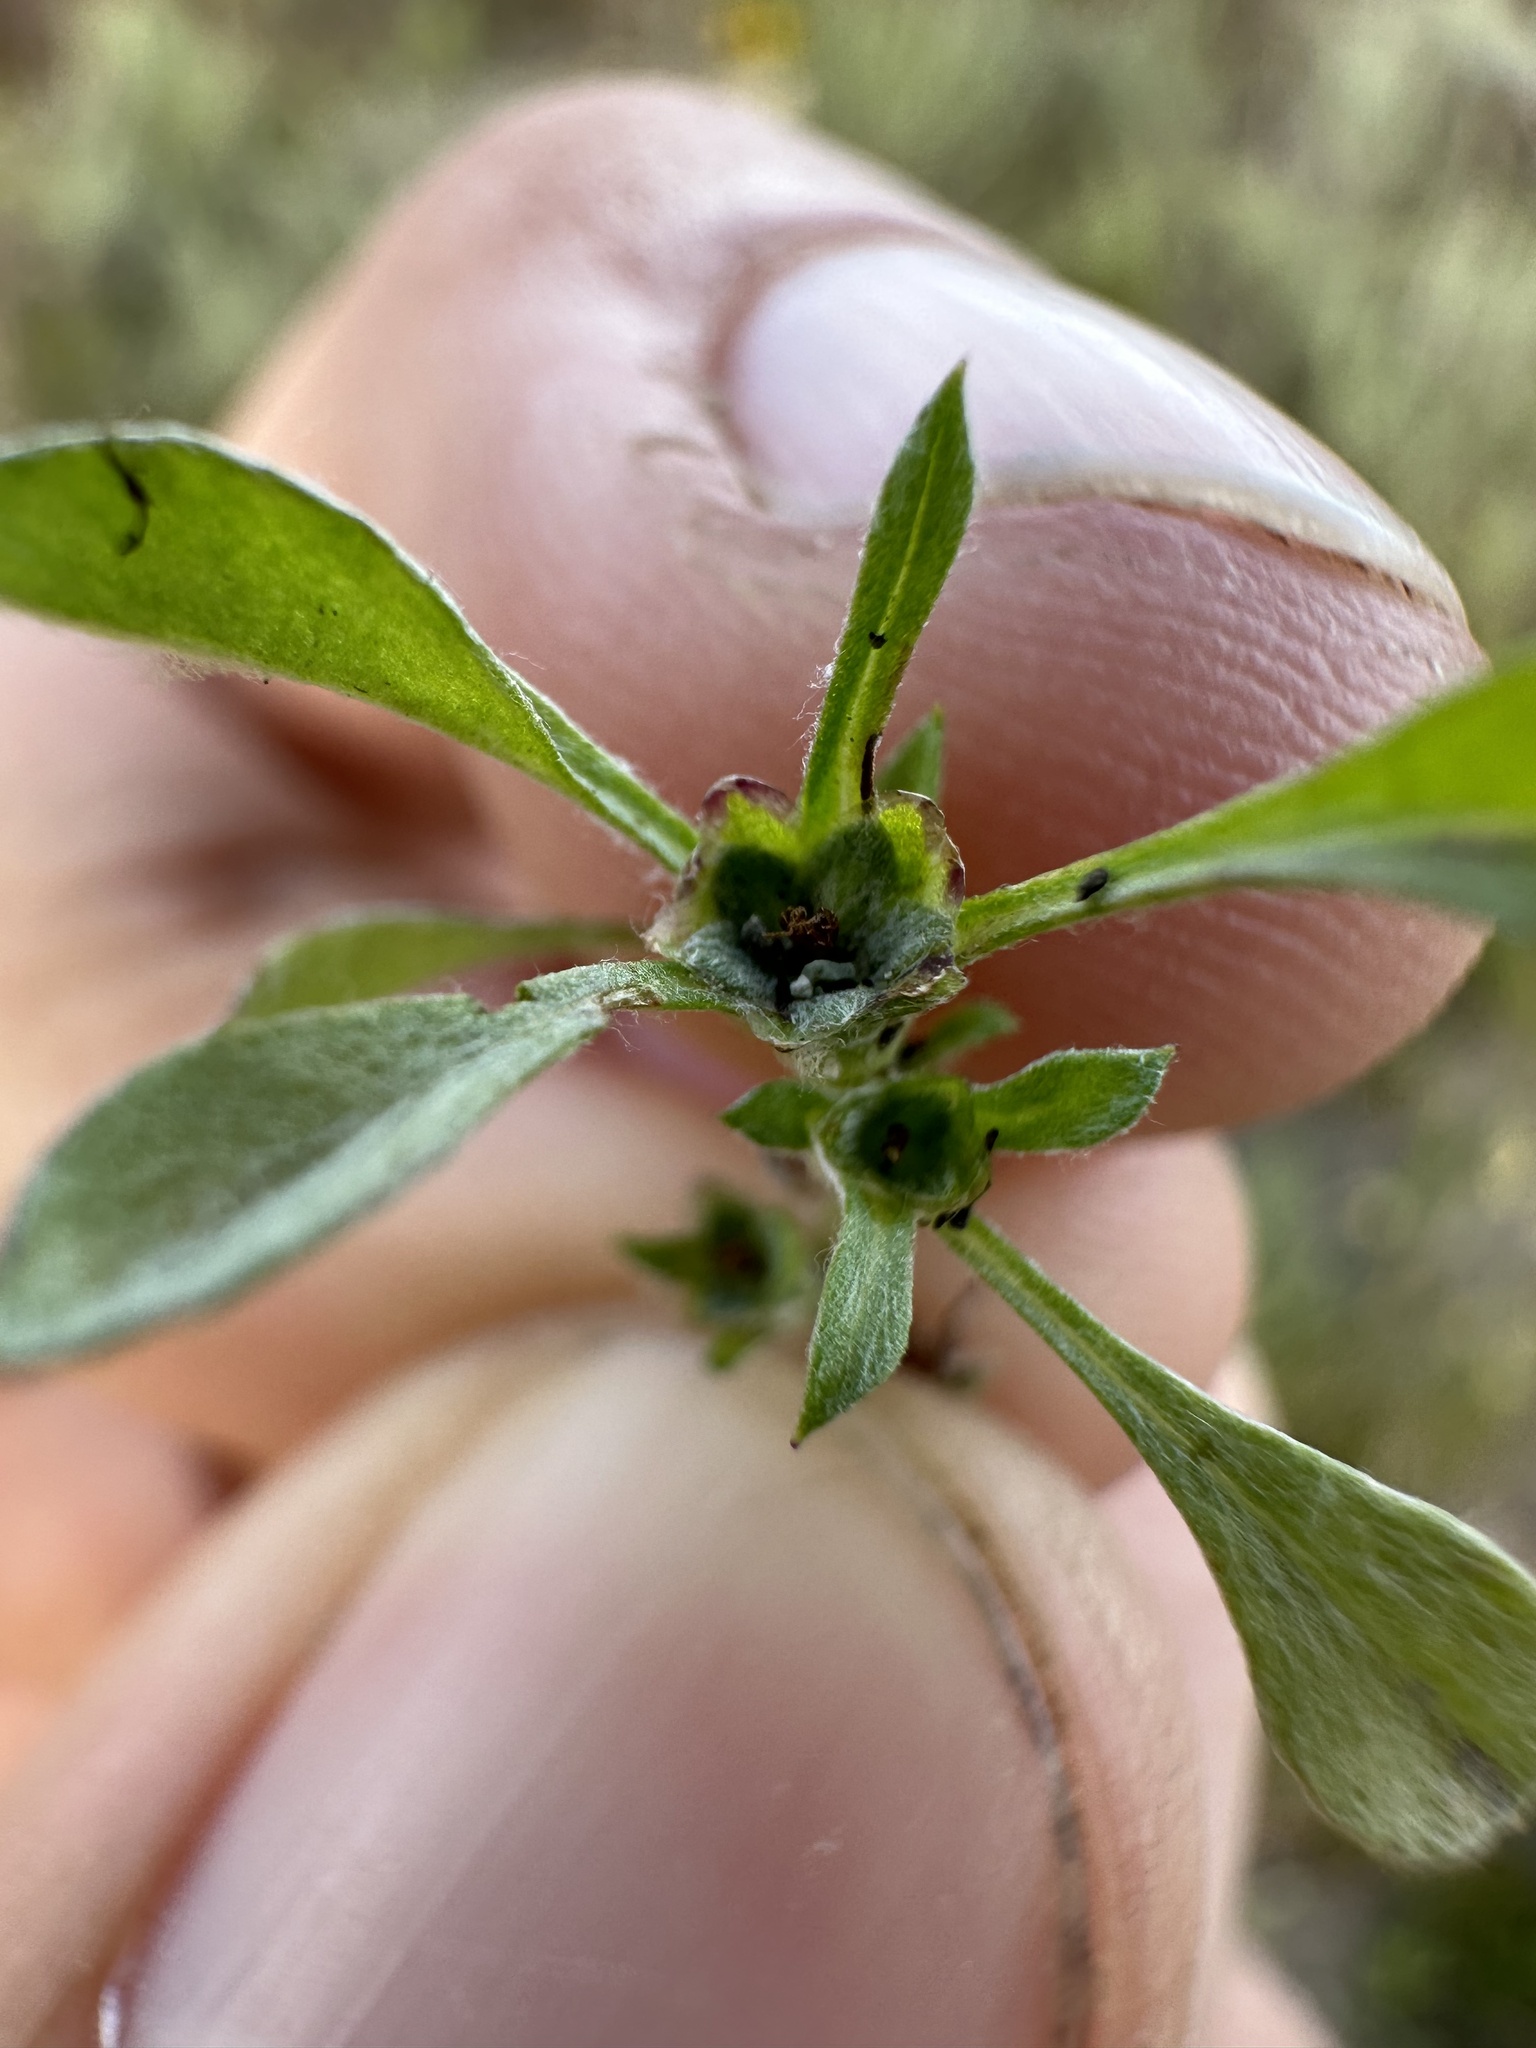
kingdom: Plantae
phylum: Tracheophyta
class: Magnoliopsida
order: Asterales
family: Asteraceae
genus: Hesperevax
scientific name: Hesperevax sparsiflora
